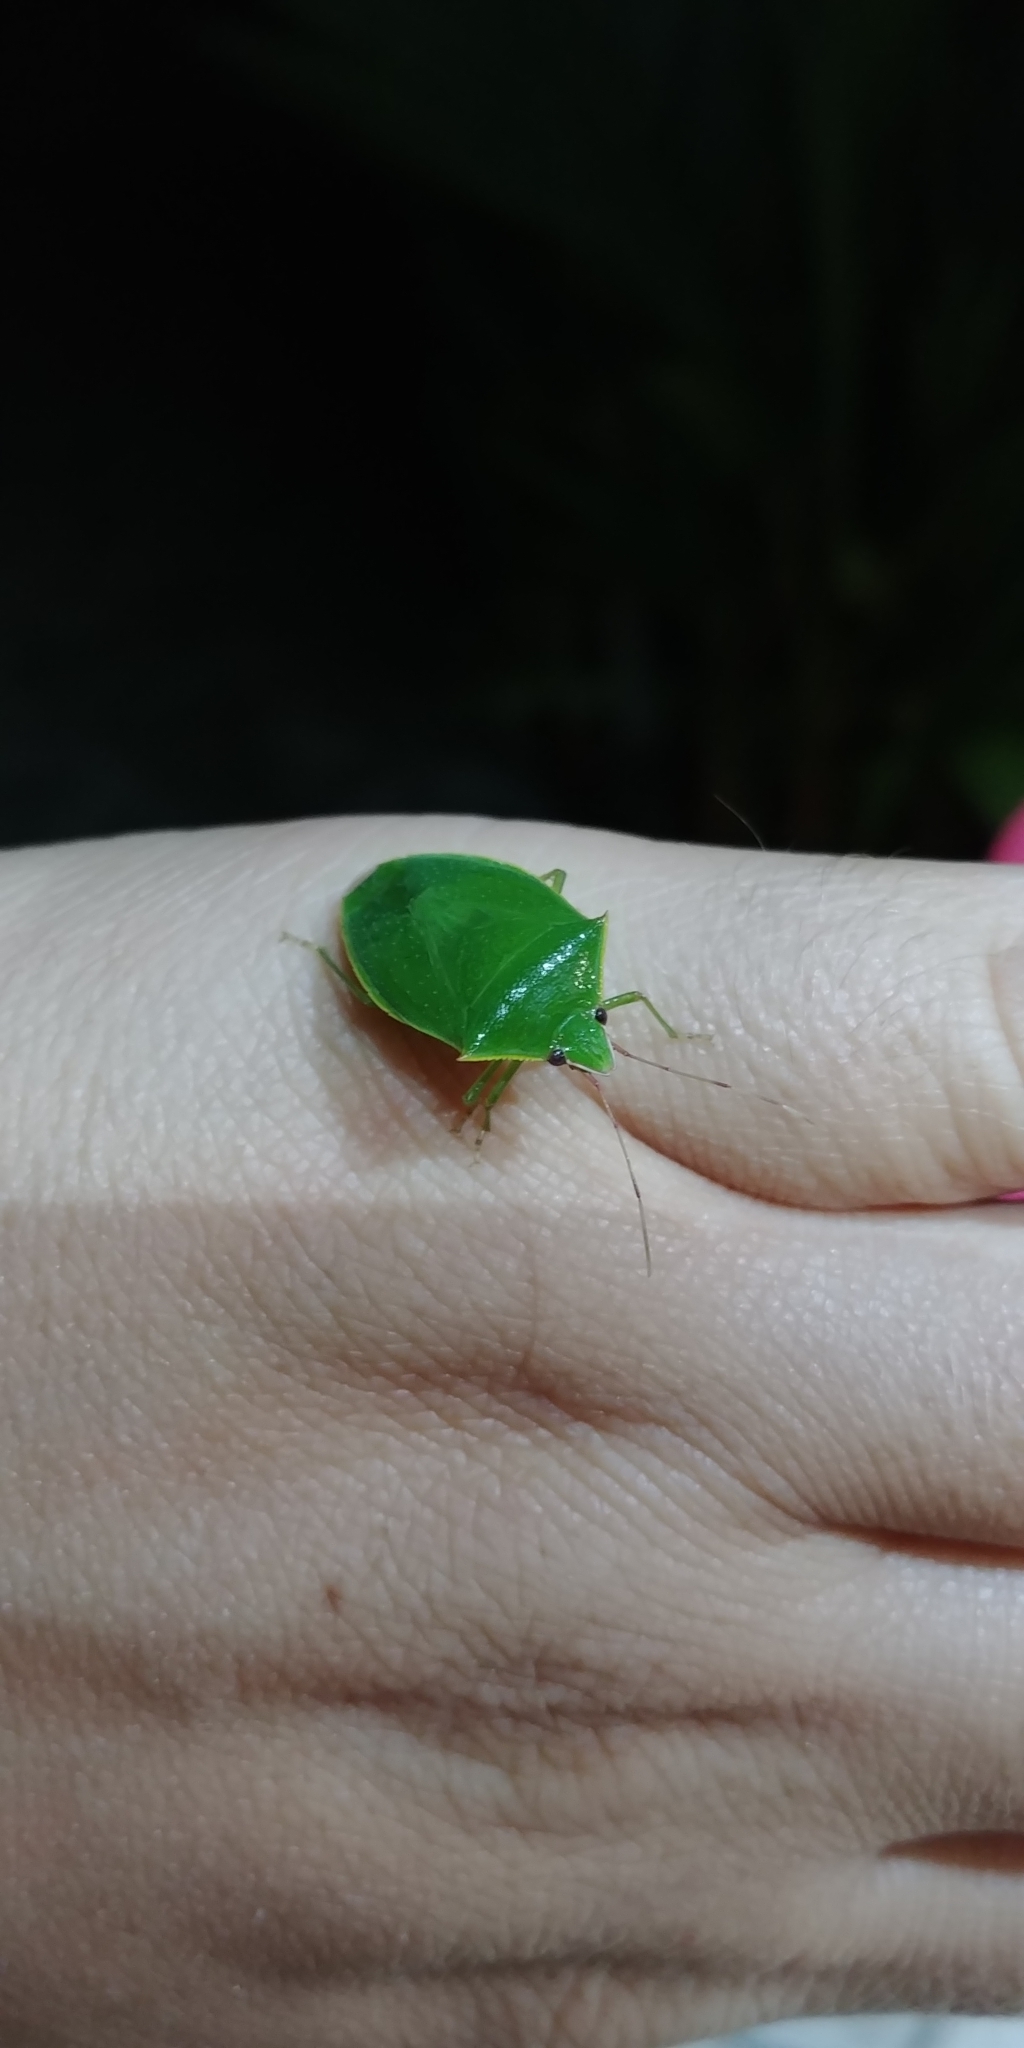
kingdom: Animalia
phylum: Arthropoda
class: Insecta
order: Hemiptera
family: Pentatomidae
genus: Loxa
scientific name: Loxa
